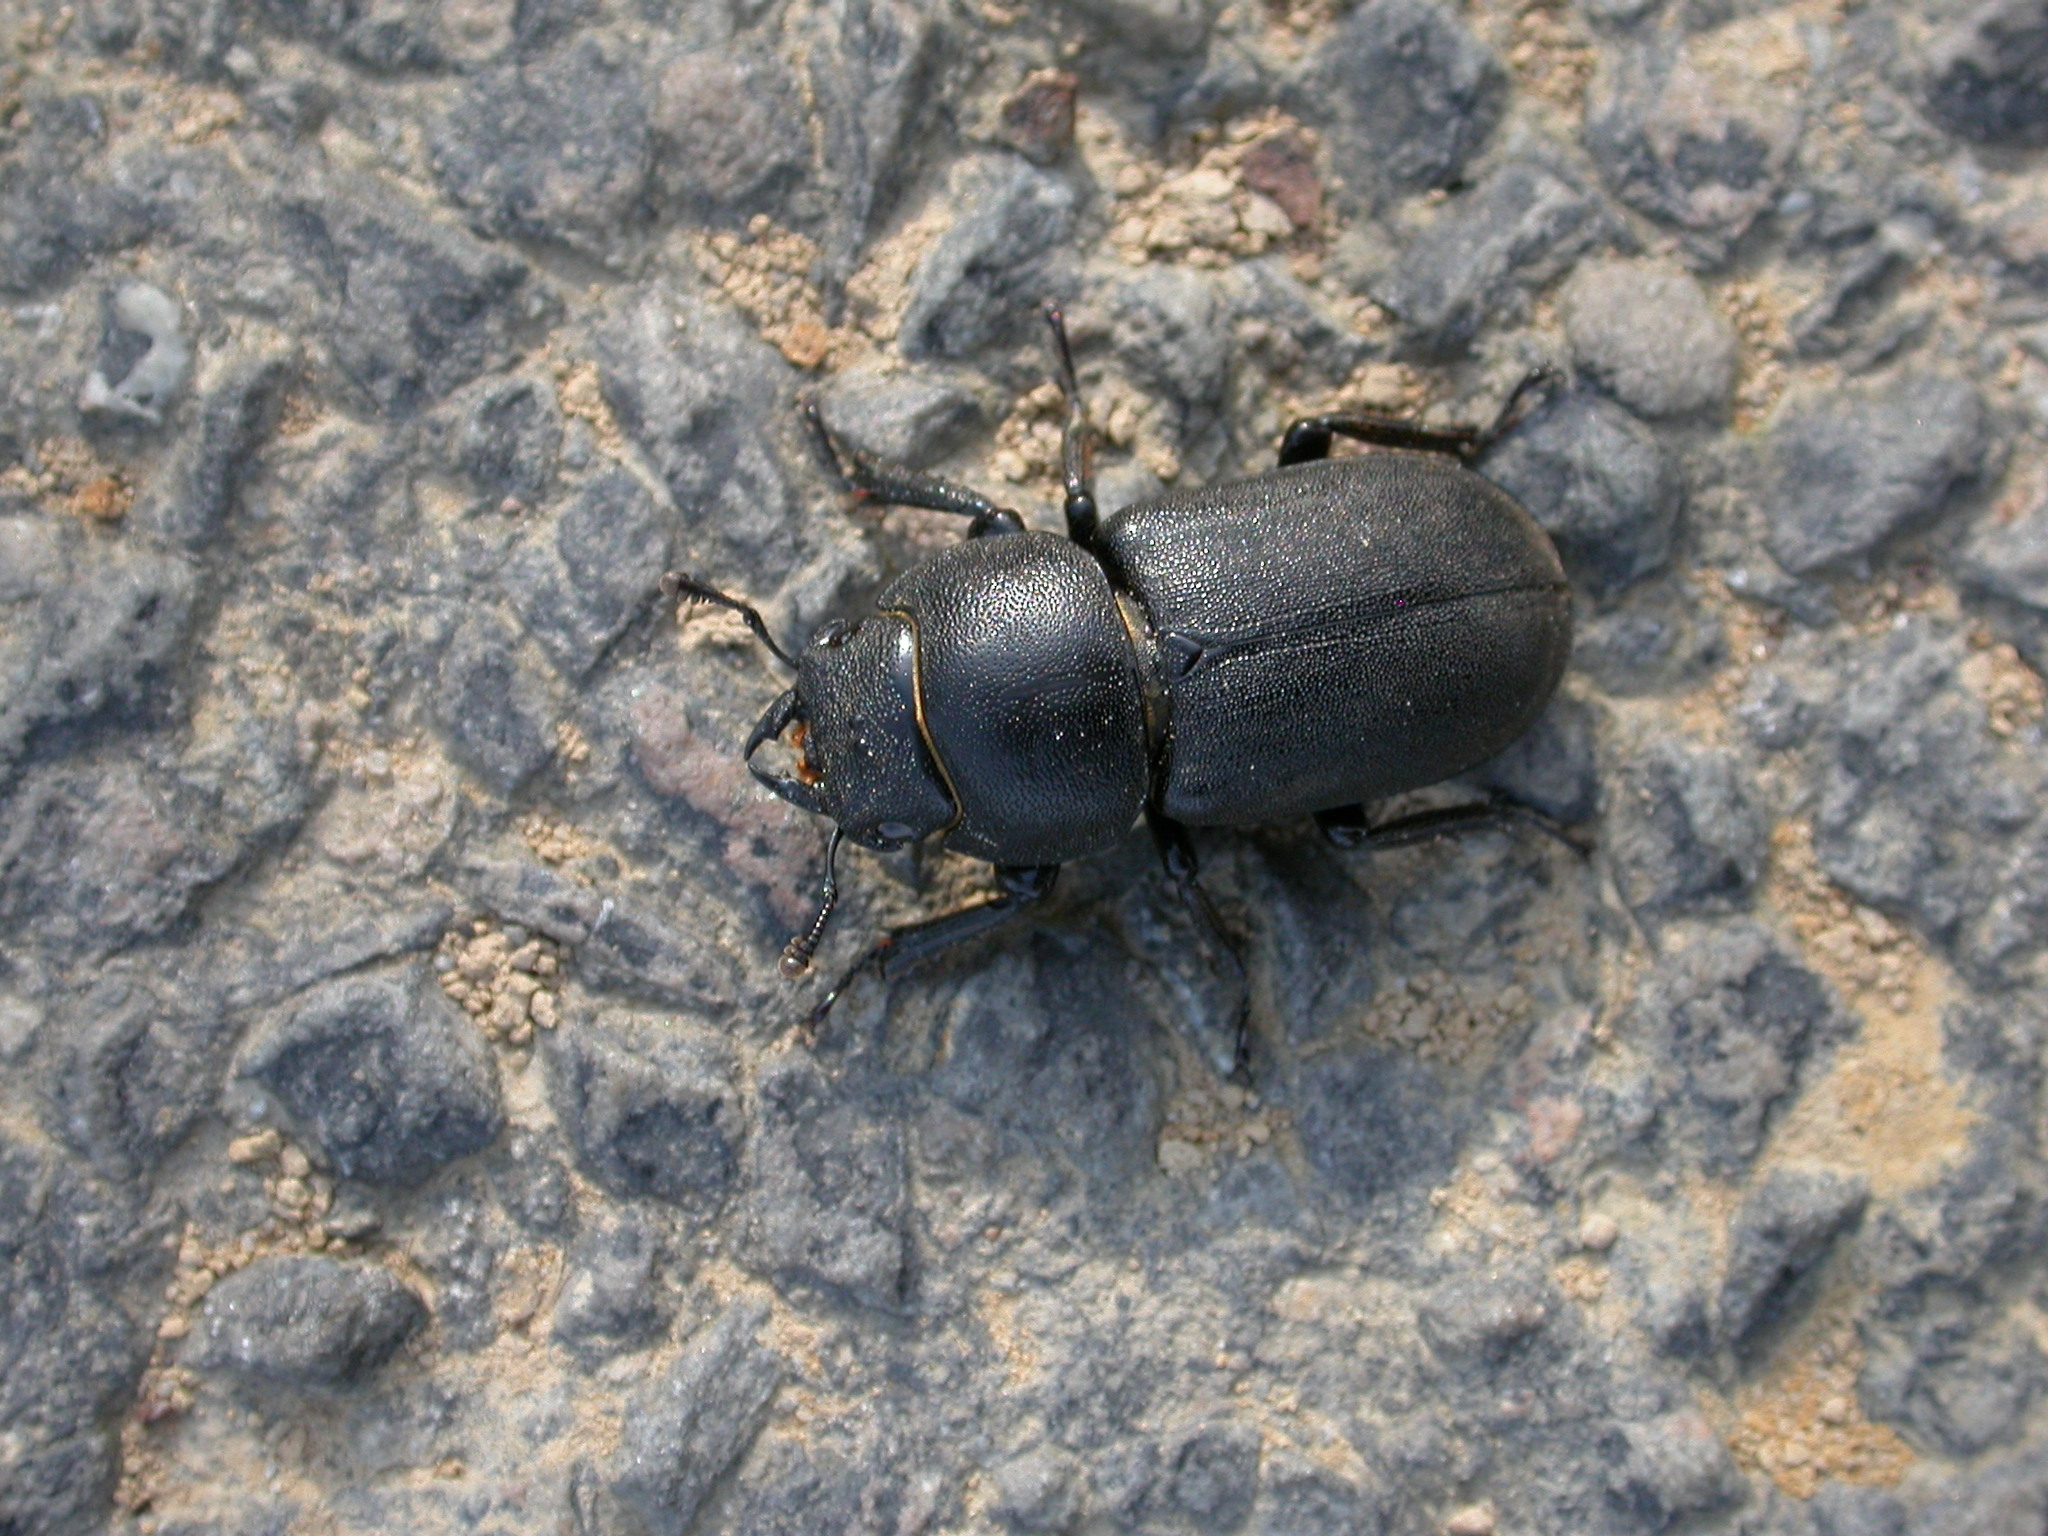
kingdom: Animalia
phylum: Arthropoda
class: Insecta
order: Coleoptera
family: Lucanidae
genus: Dorcus
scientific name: Dorcus parallelipipedus
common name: Lesser stag beetle
